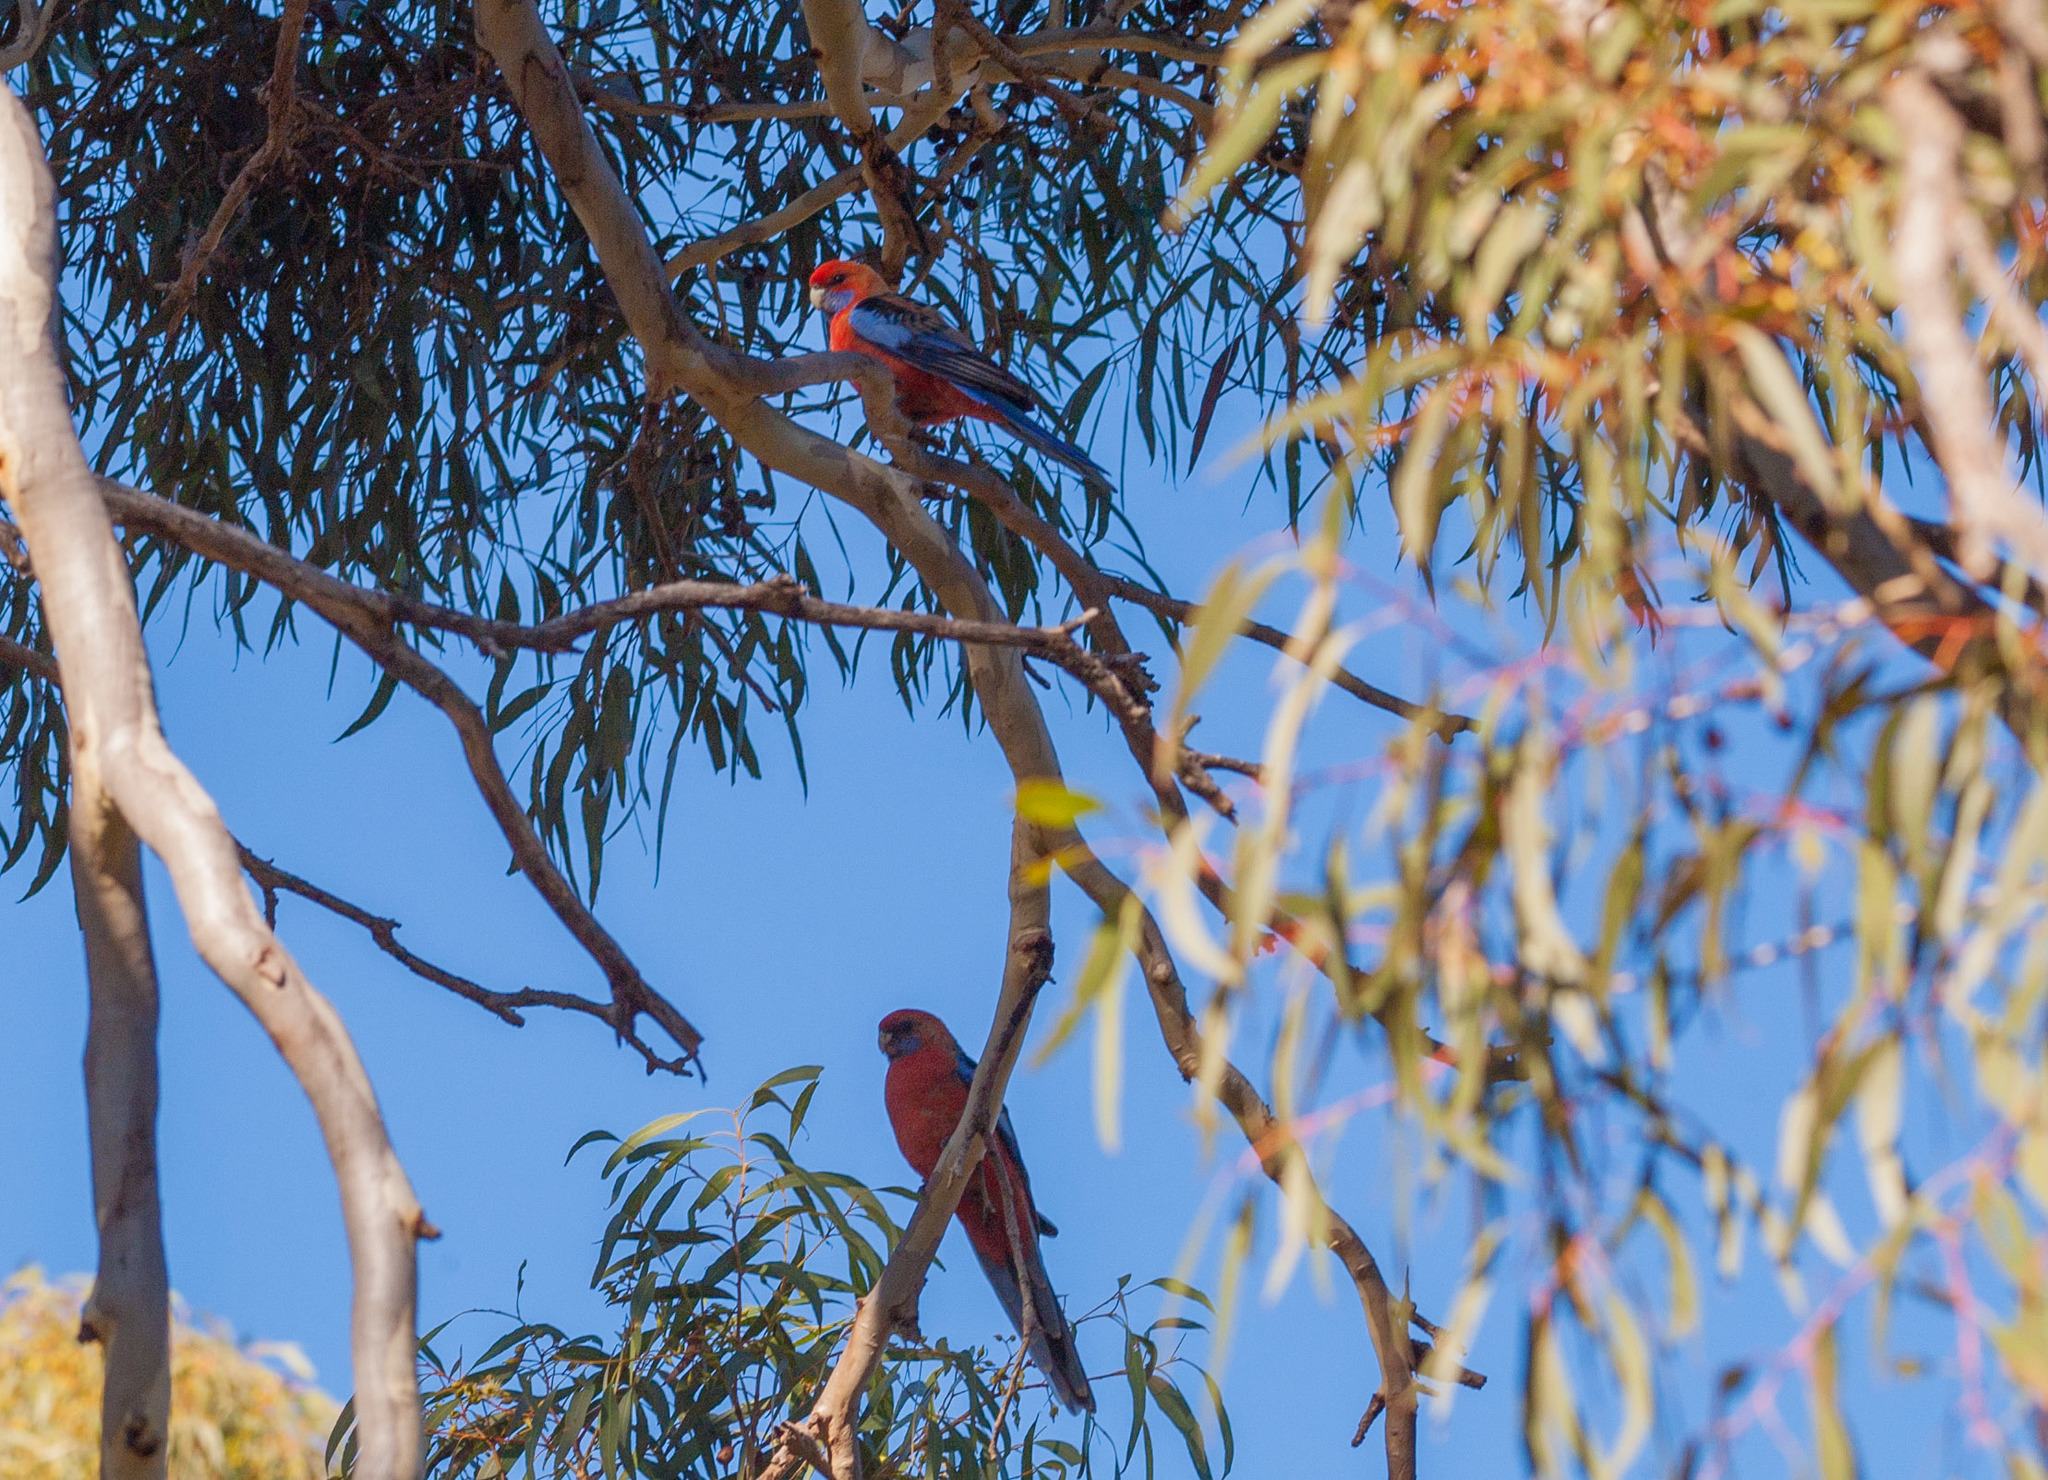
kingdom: Animalia
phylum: Chordata
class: Aves
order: Psittaciformes
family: Psittacidae
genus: Platycercus
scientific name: Platycercus elegans
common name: Crimson rosella
